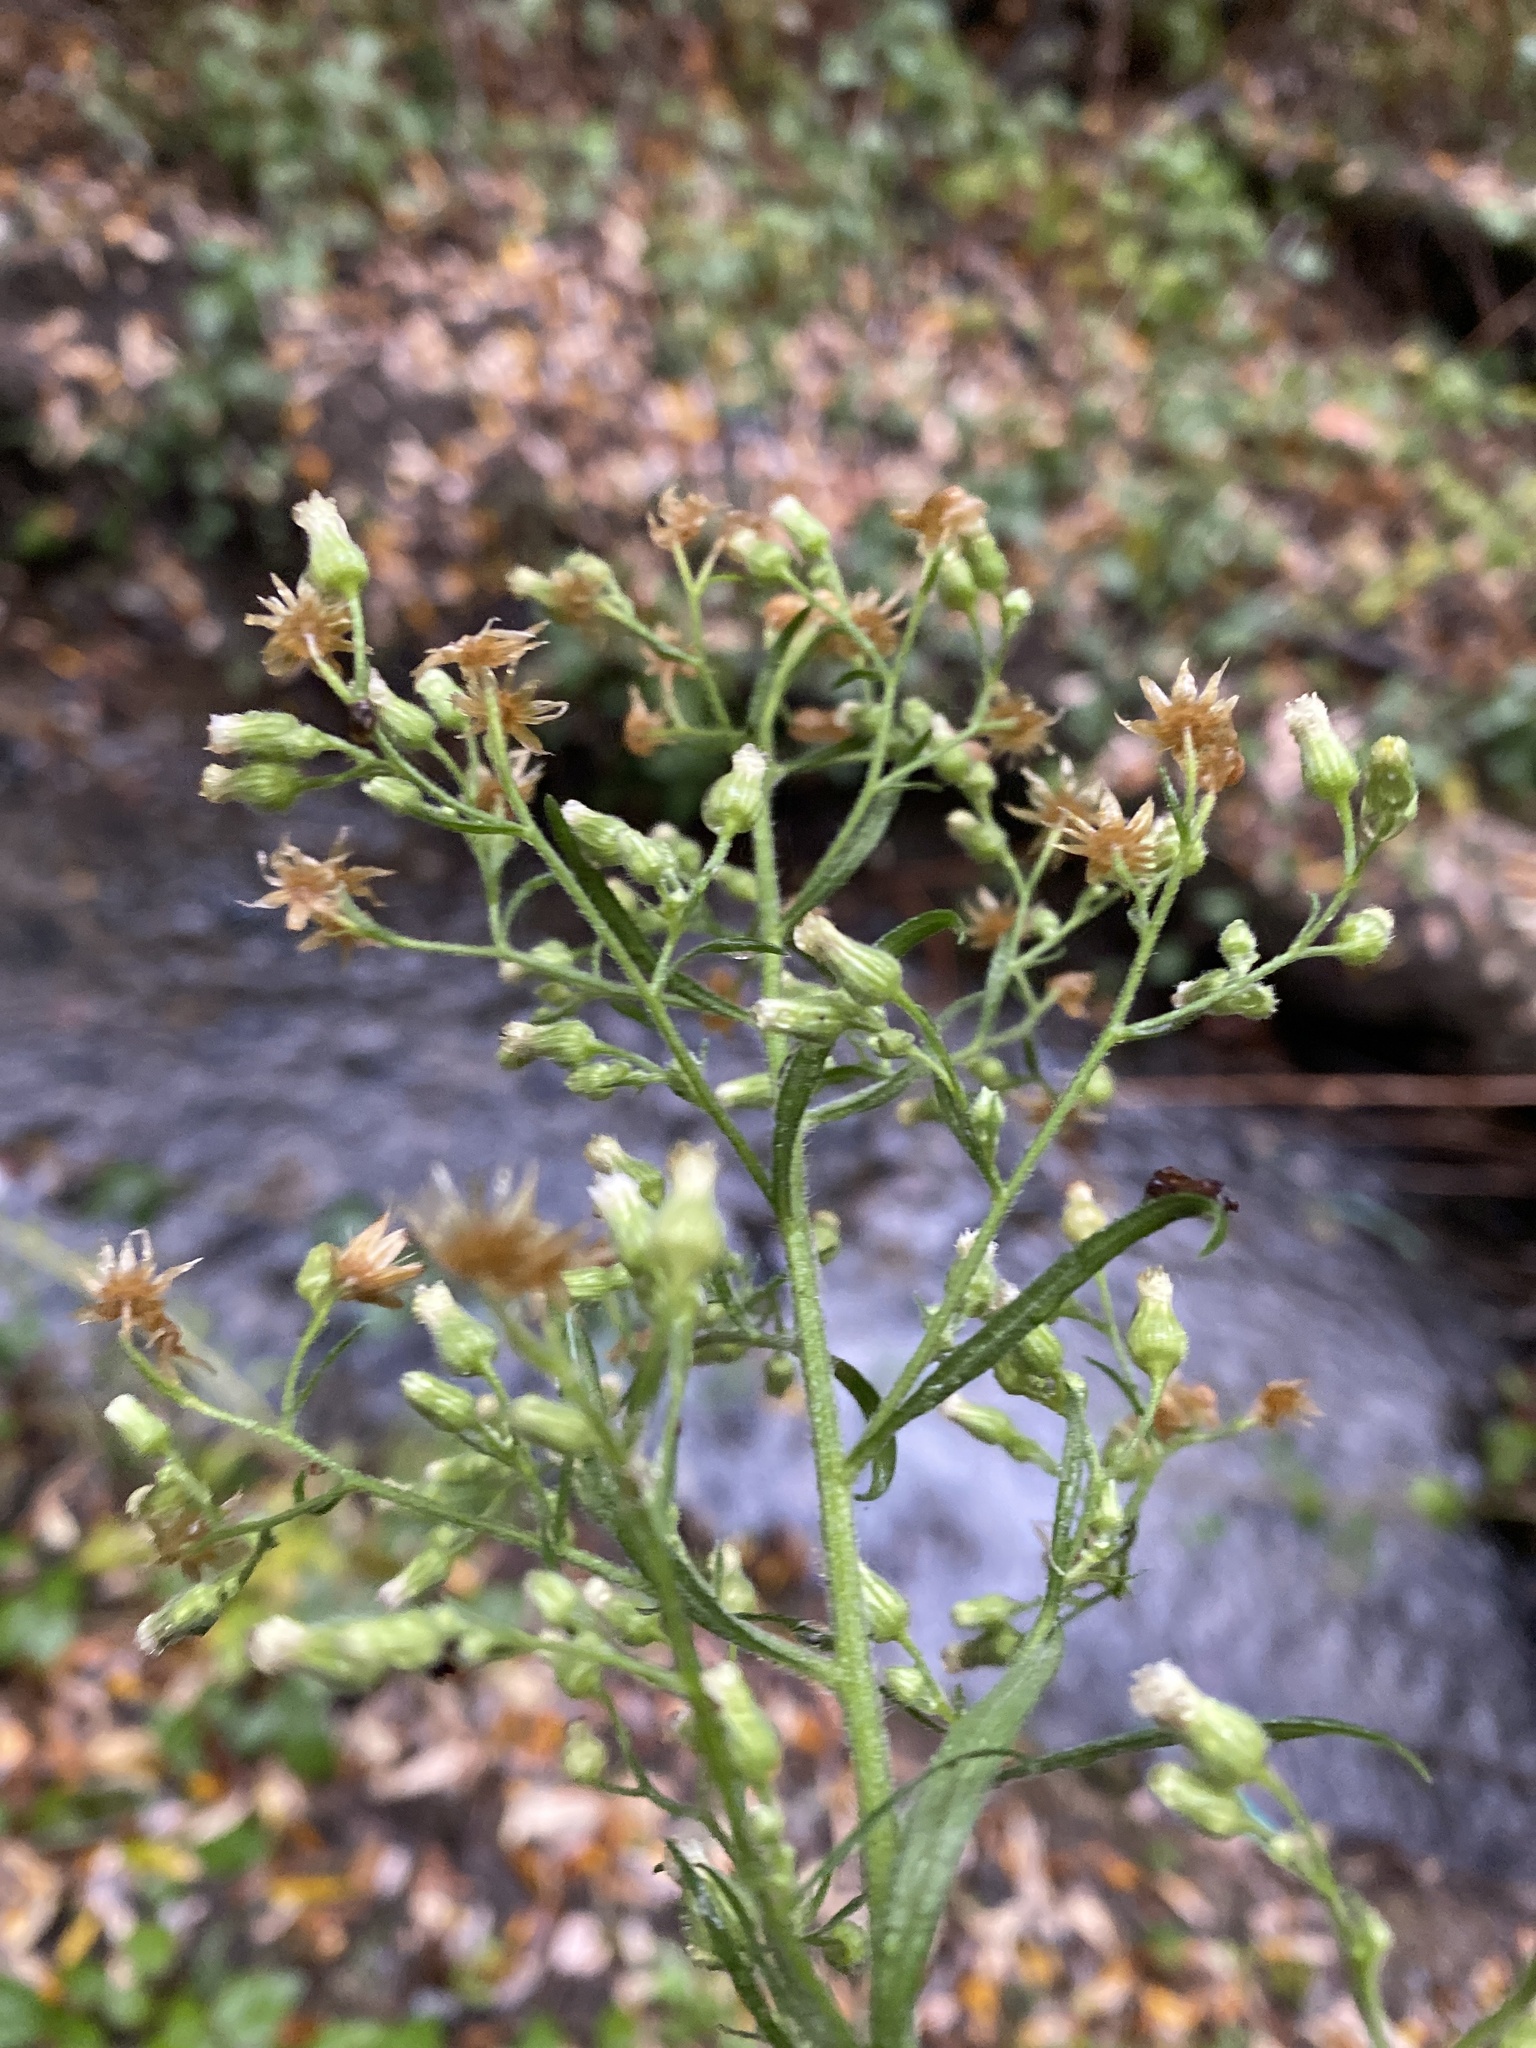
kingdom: Plantae
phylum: Tracheophyta
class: Magnoliopsida
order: Asterales
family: Asteraceae
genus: Erigeron
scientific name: Erigeron canadensis
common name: Canadian fleabane
